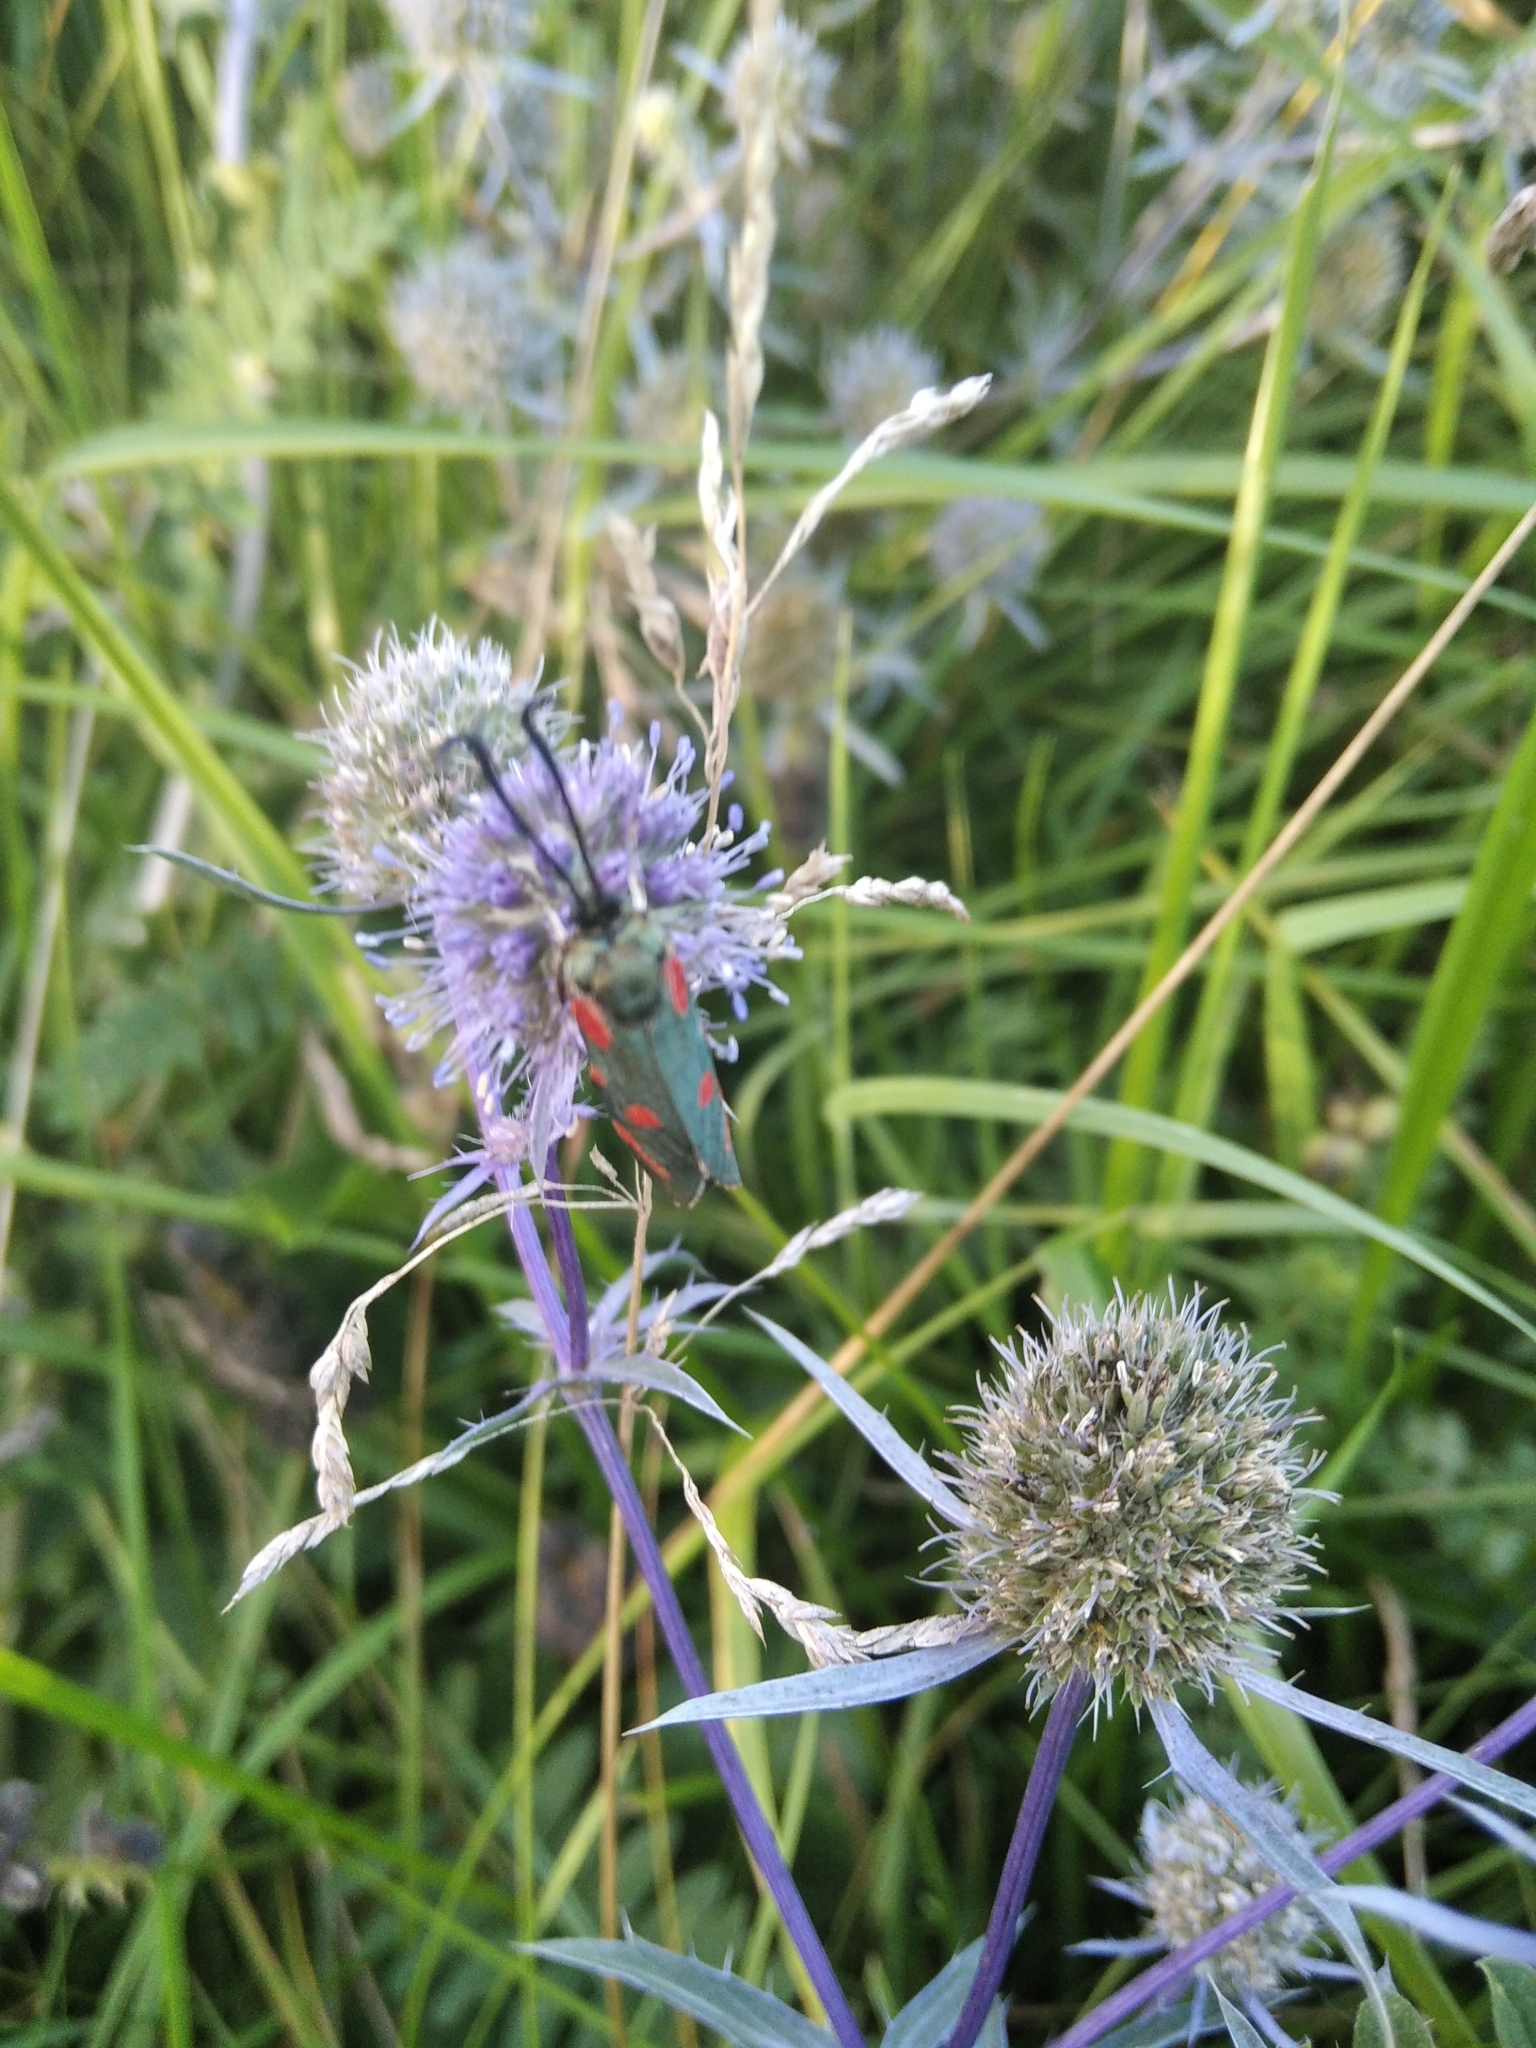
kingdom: Plantae
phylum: Tracheophyta
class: Magnoliopsida
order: Apiales
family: Apiaceae
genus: Eryngium
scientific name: Eryngium planum
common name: Blue eryngo
